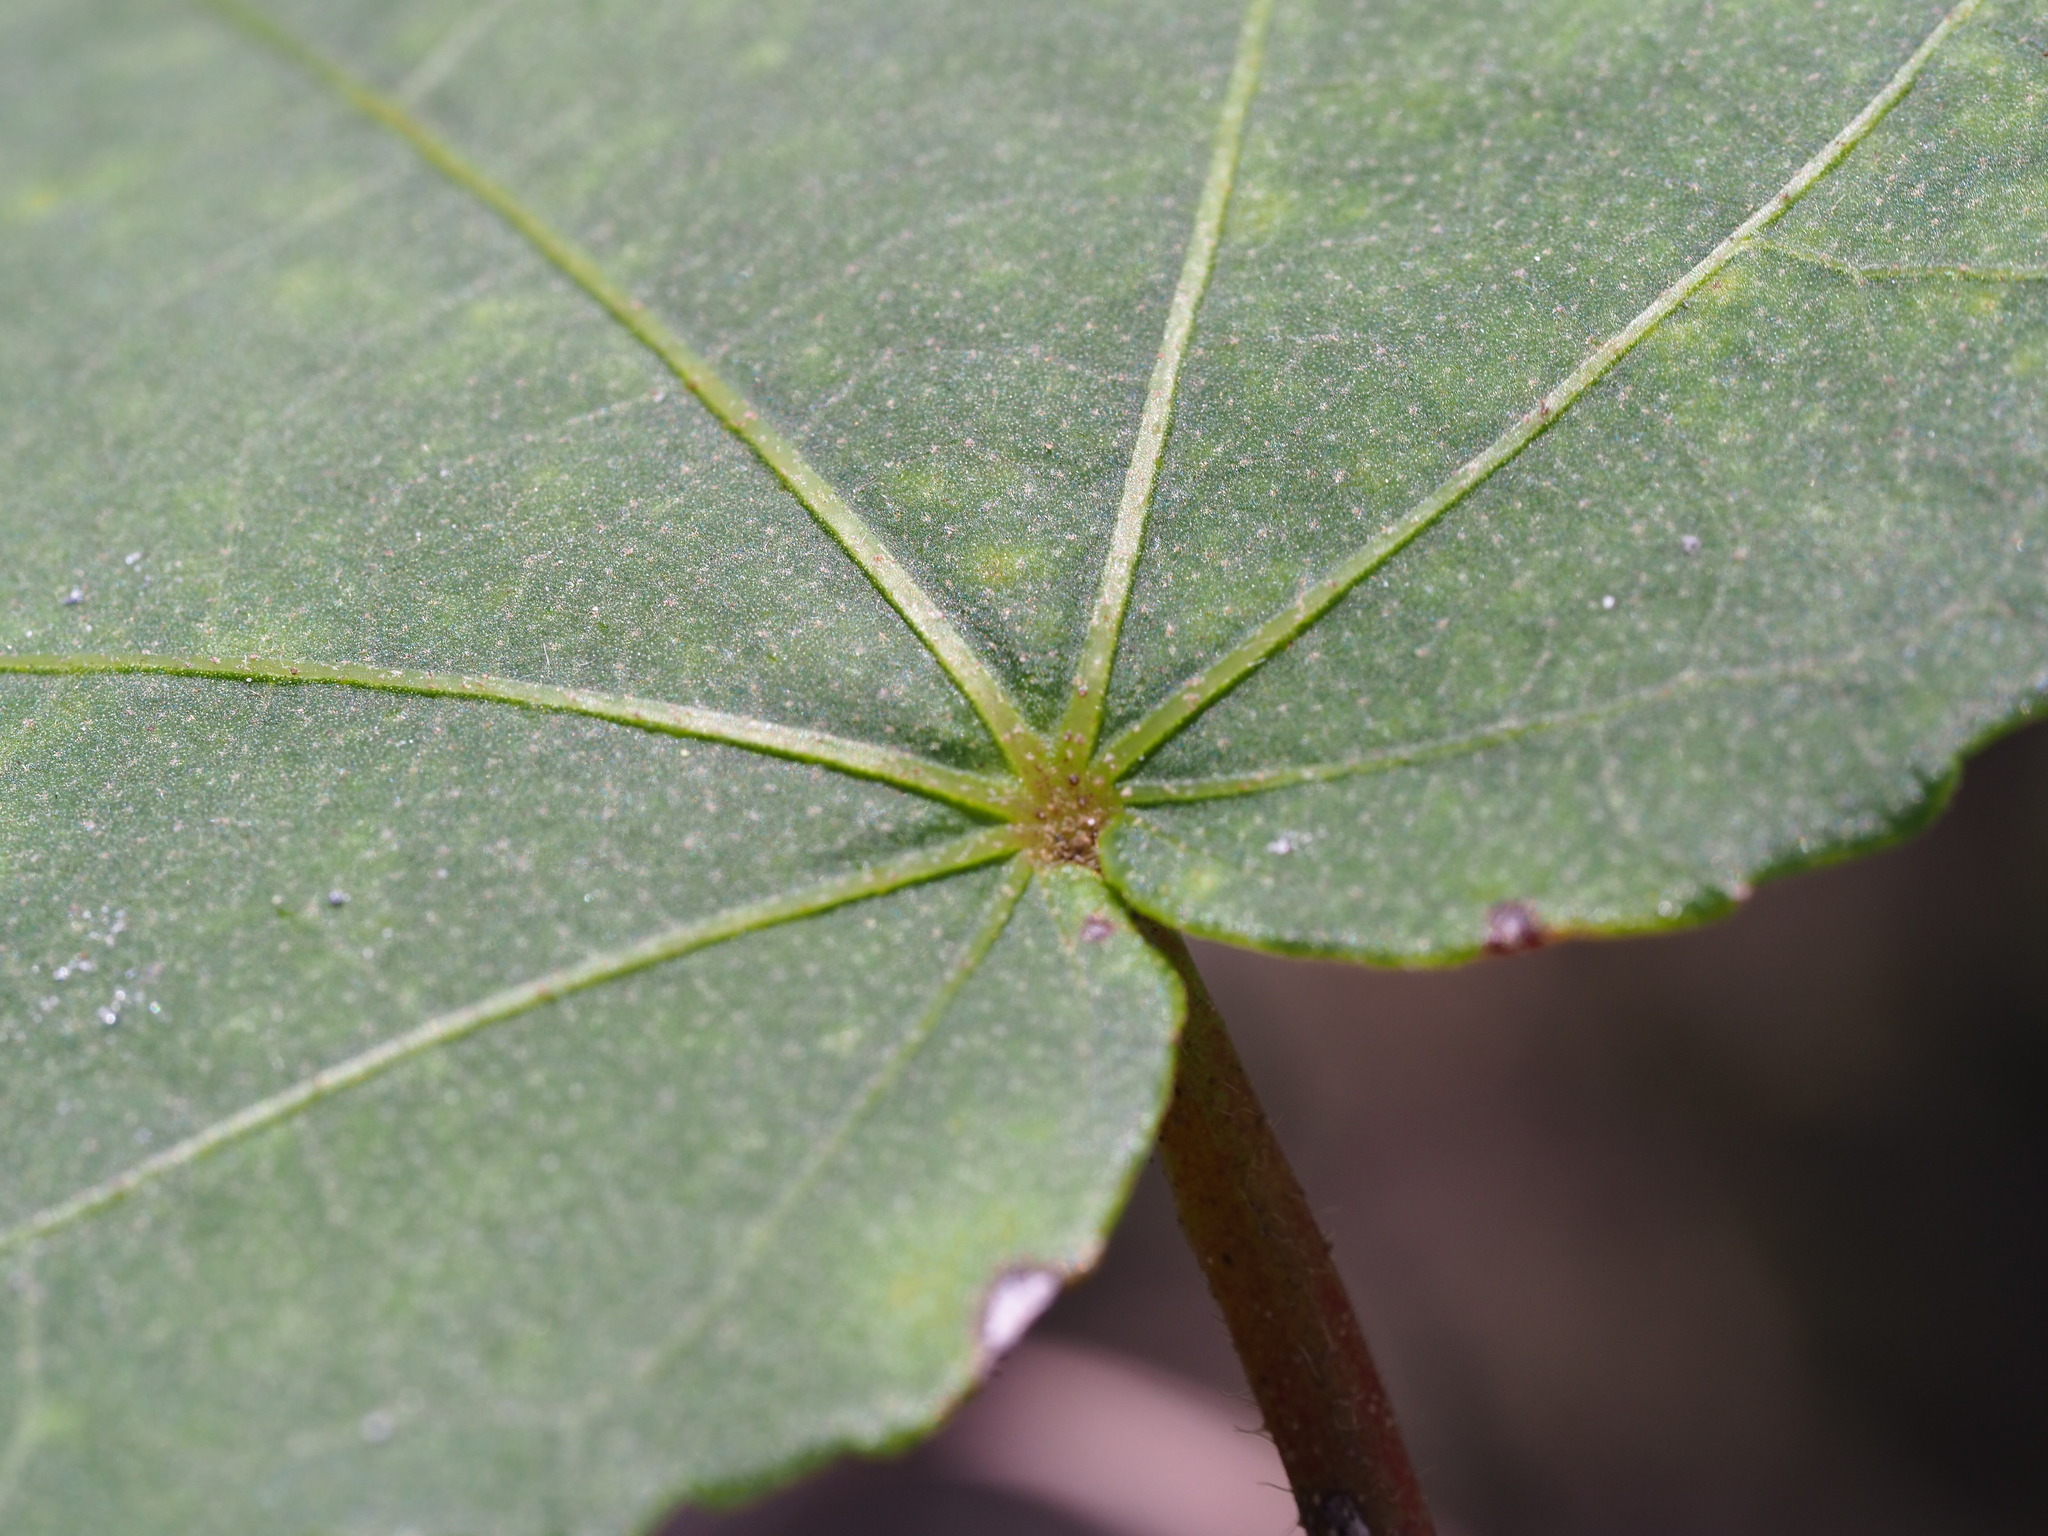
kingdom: Plantae
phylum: Tracheophyta
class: Magnoliopsida
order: Malvales
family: Malvaceae
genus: Hibiscus
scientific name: Hibiscus taiwanensis
